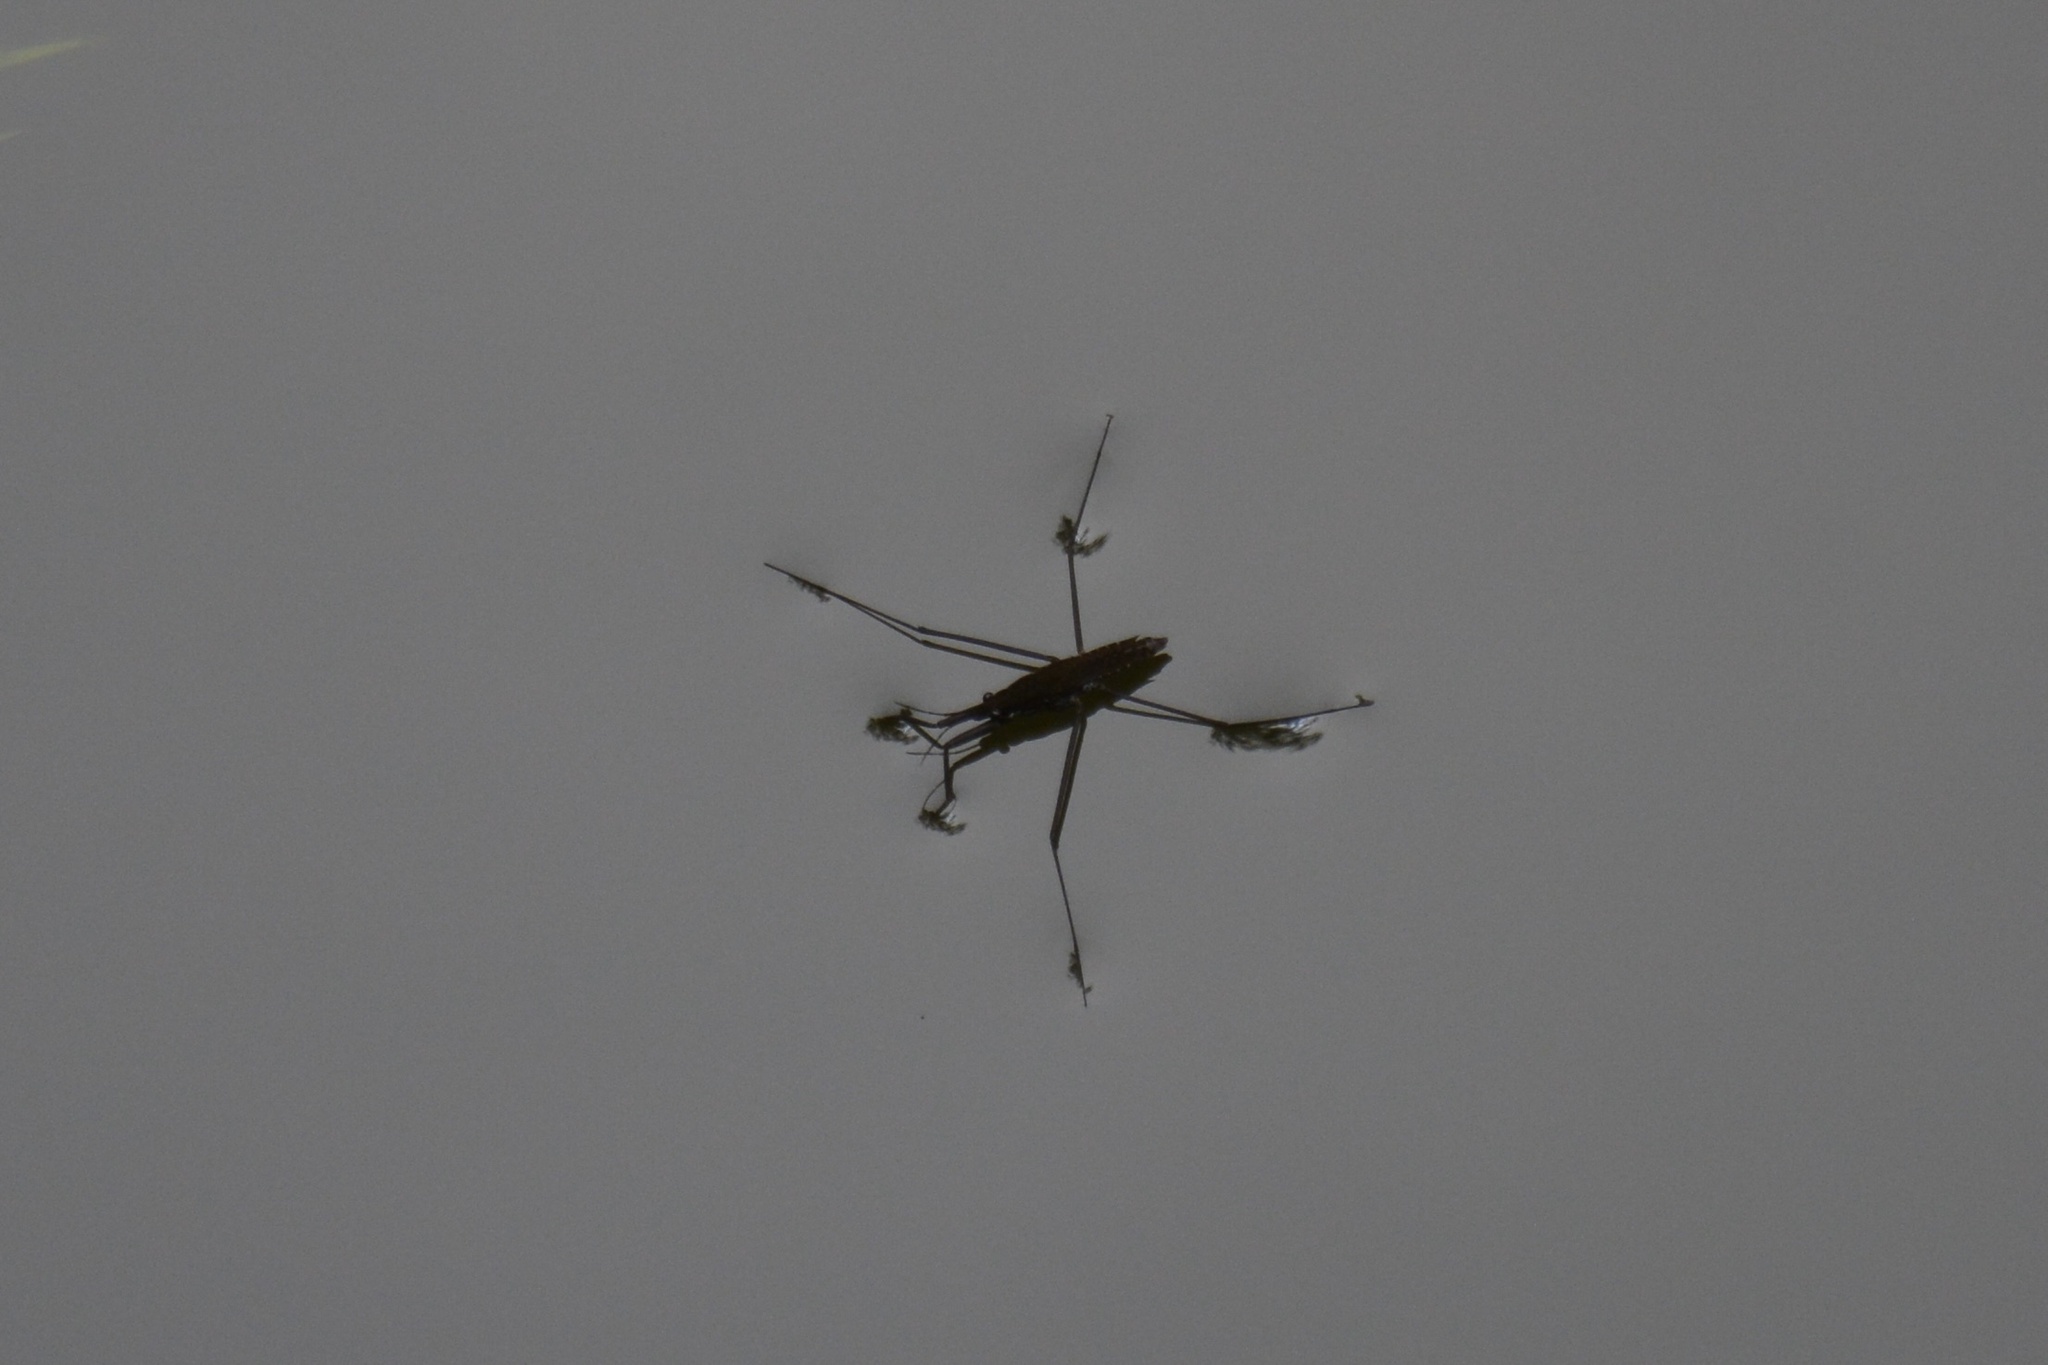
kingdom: Animalia
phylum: Arthropoda
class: Insecta
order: Hemiptera
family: Gerridae
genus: Aquarius
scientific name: Aquarius remigis
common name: Common water strider
